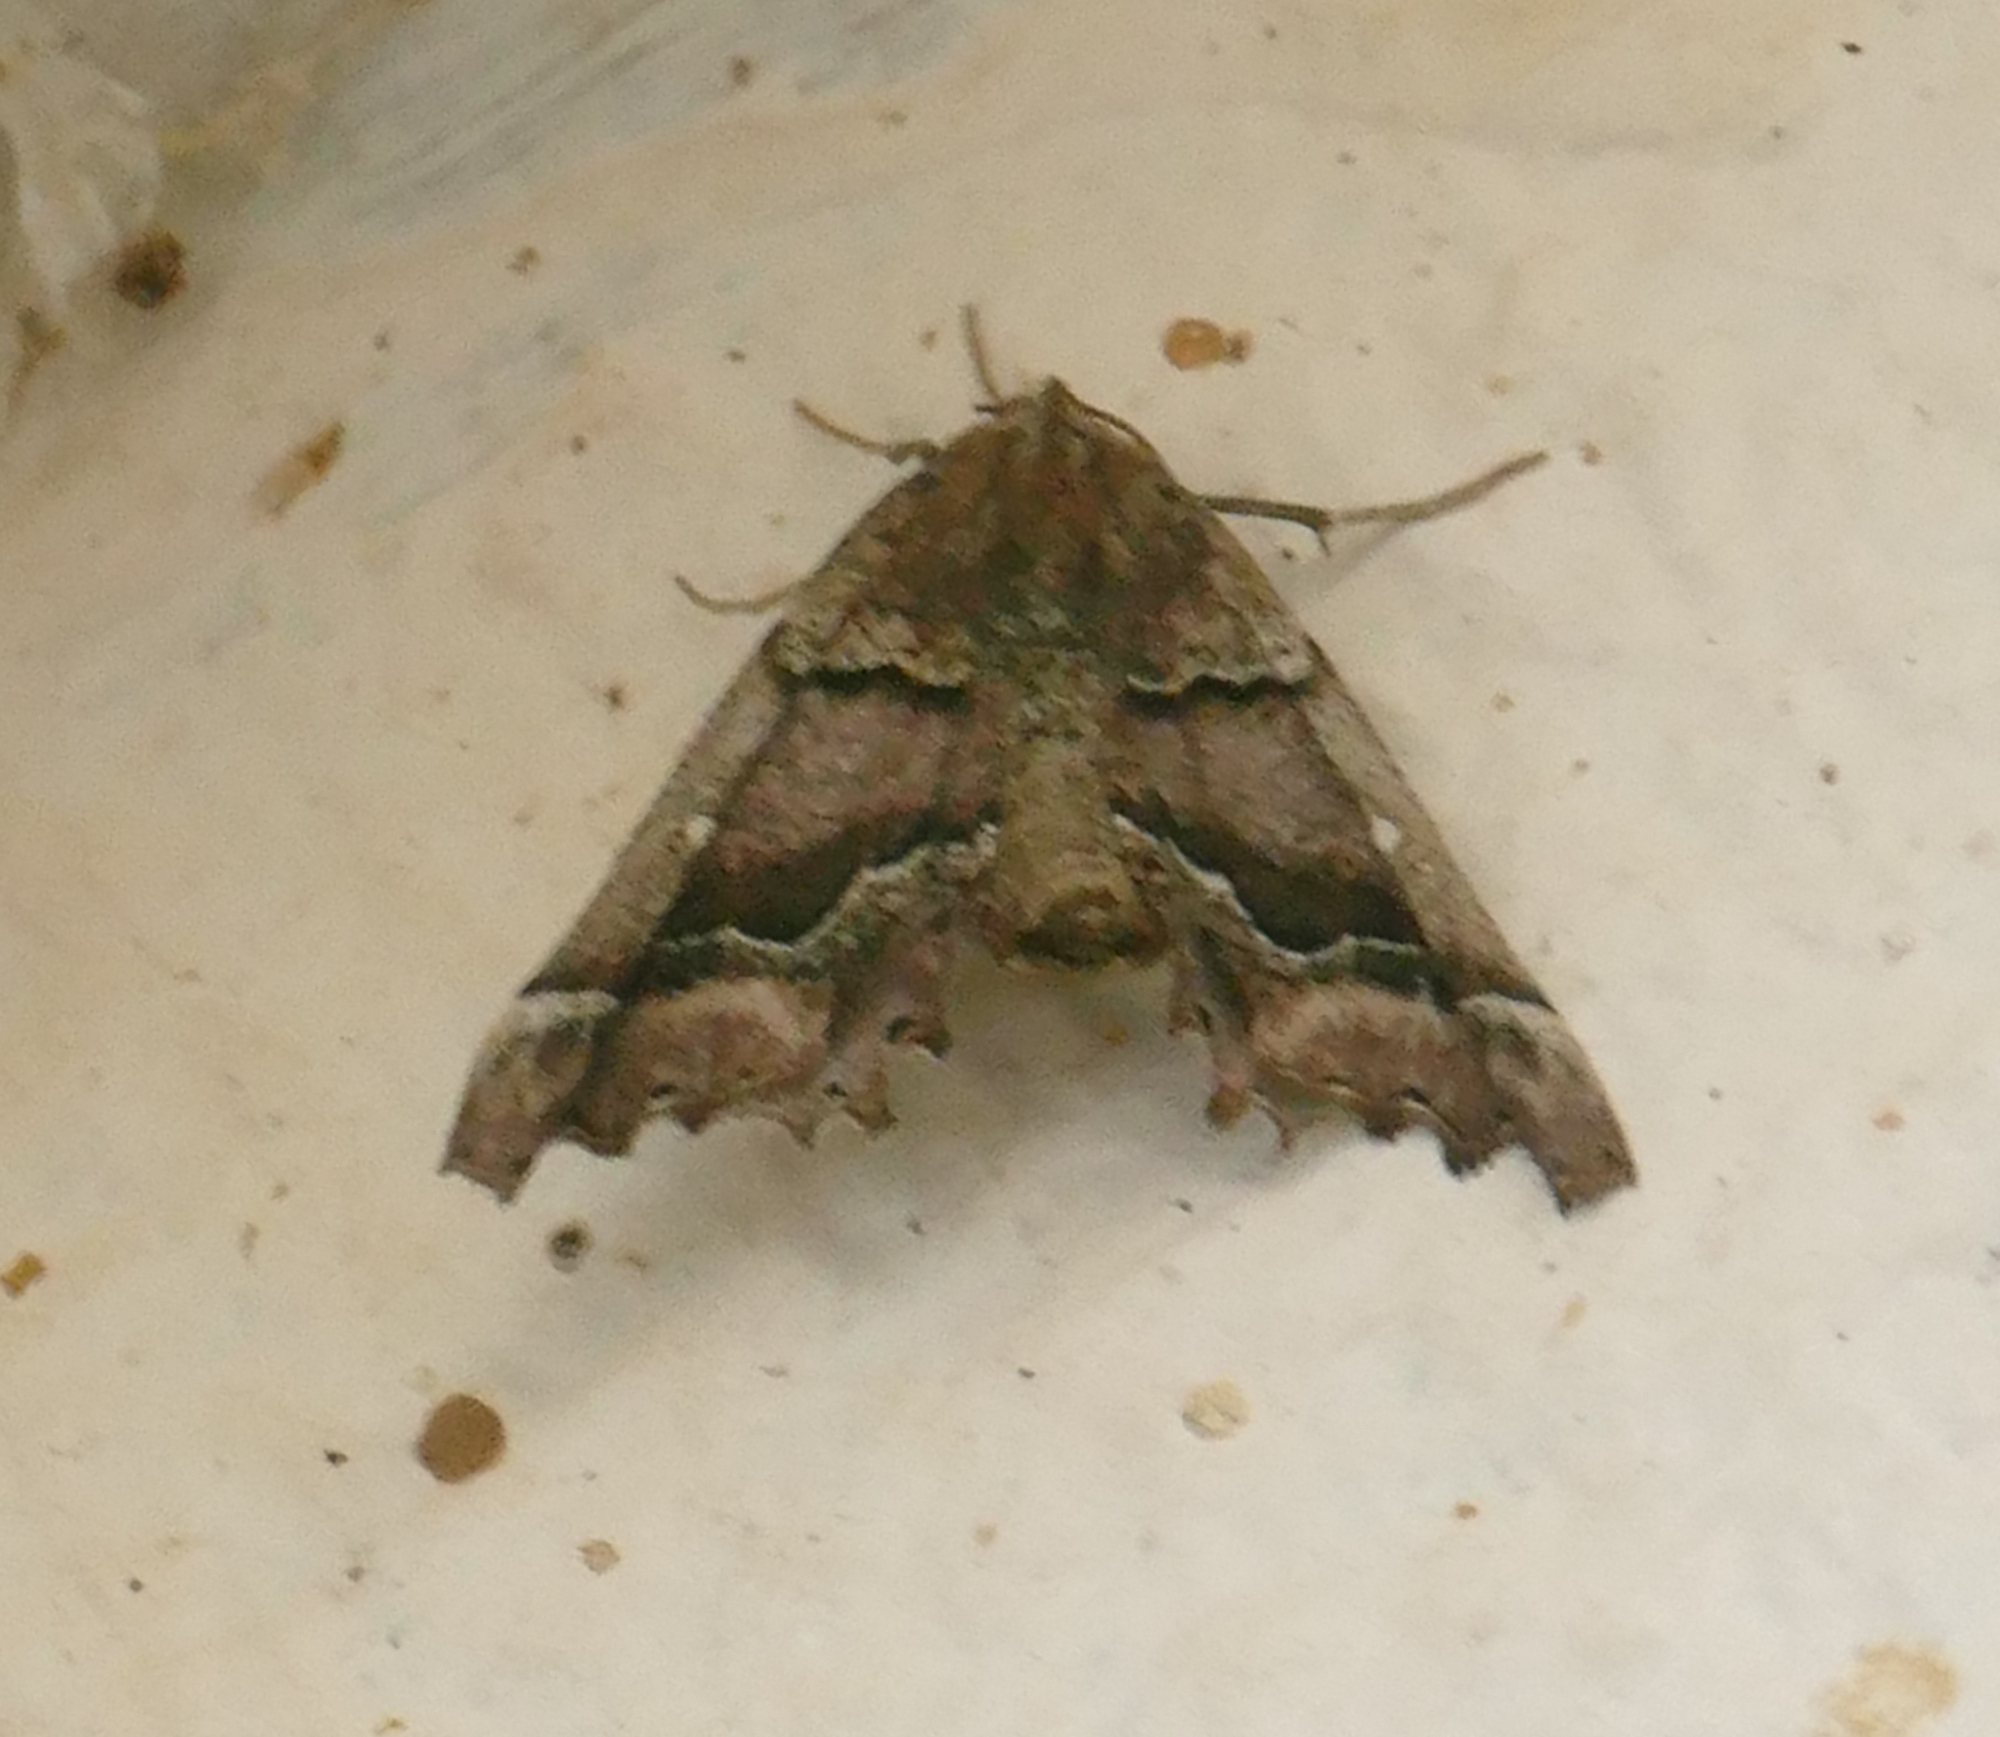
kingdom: Animalia
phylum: Arthropoda
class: Insecta
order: Lepidoptera
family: Geometridae
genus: Pero
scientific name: Pero meskaria
